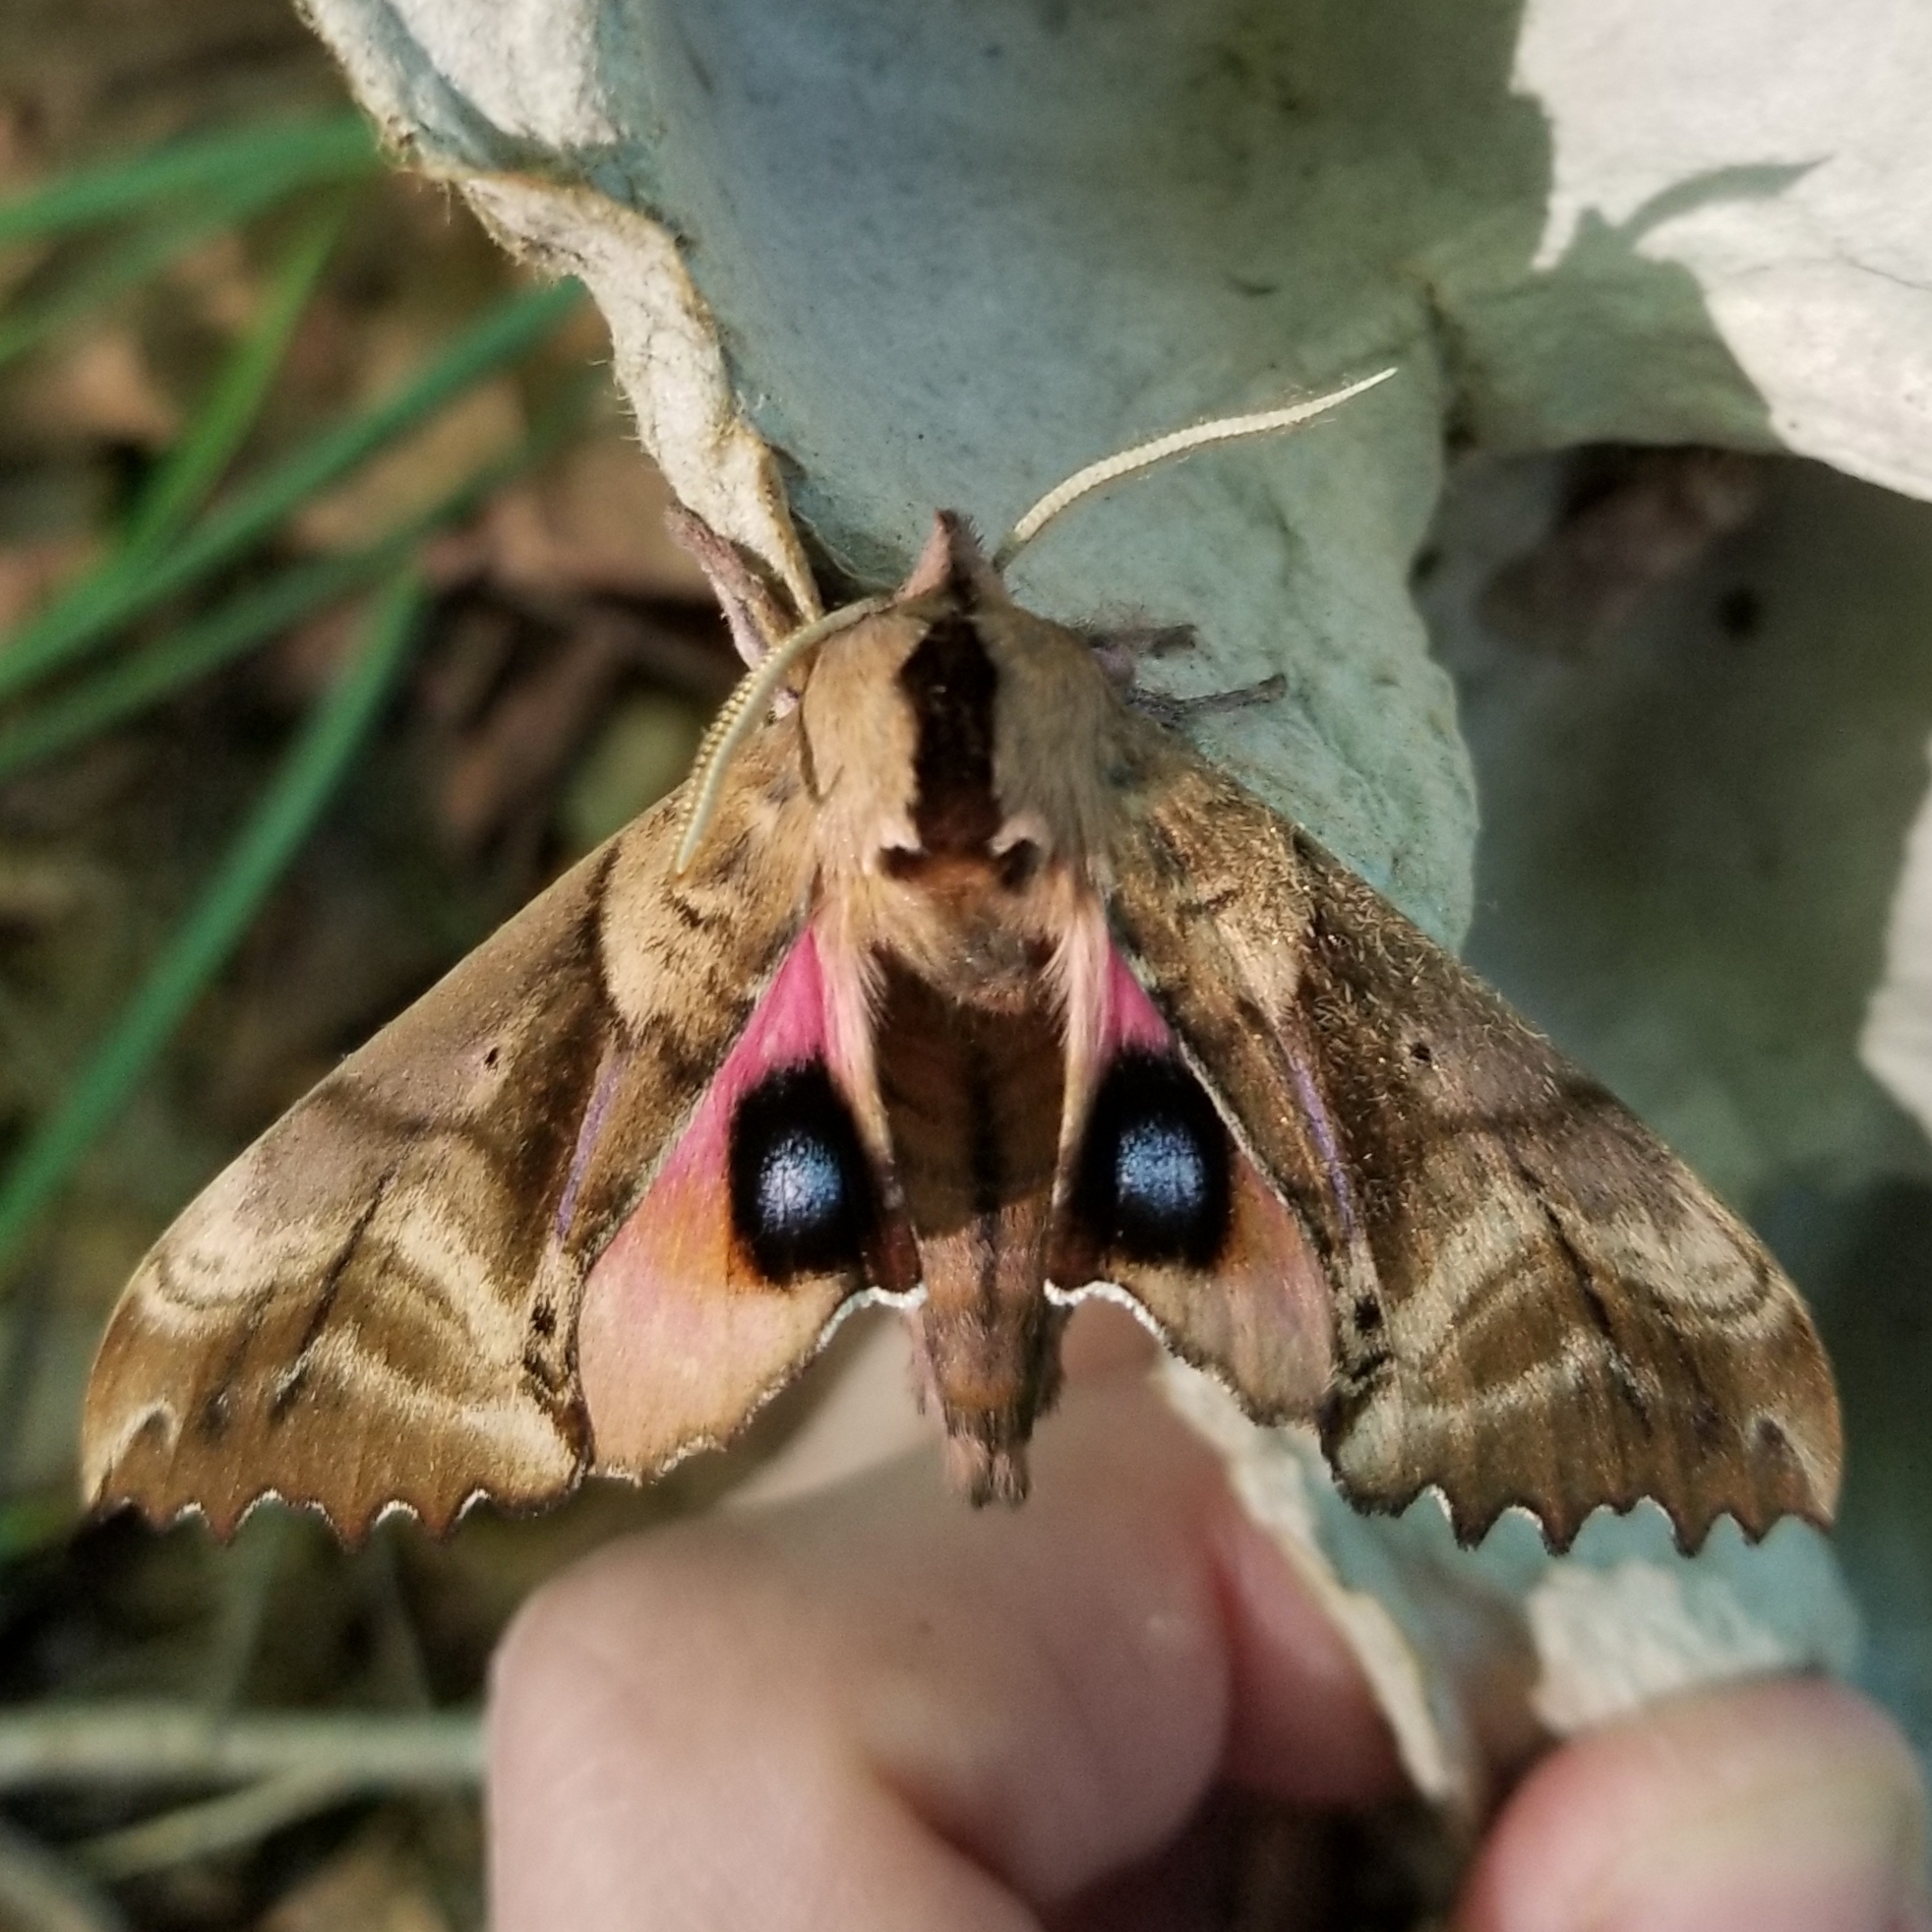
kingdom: Animalia
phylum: Arthropoda
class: Insecta
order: Lepidoptera
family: Sphingidae
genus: Paonias
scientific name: Paonias excaecata
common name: Blind-eyed sphinx
